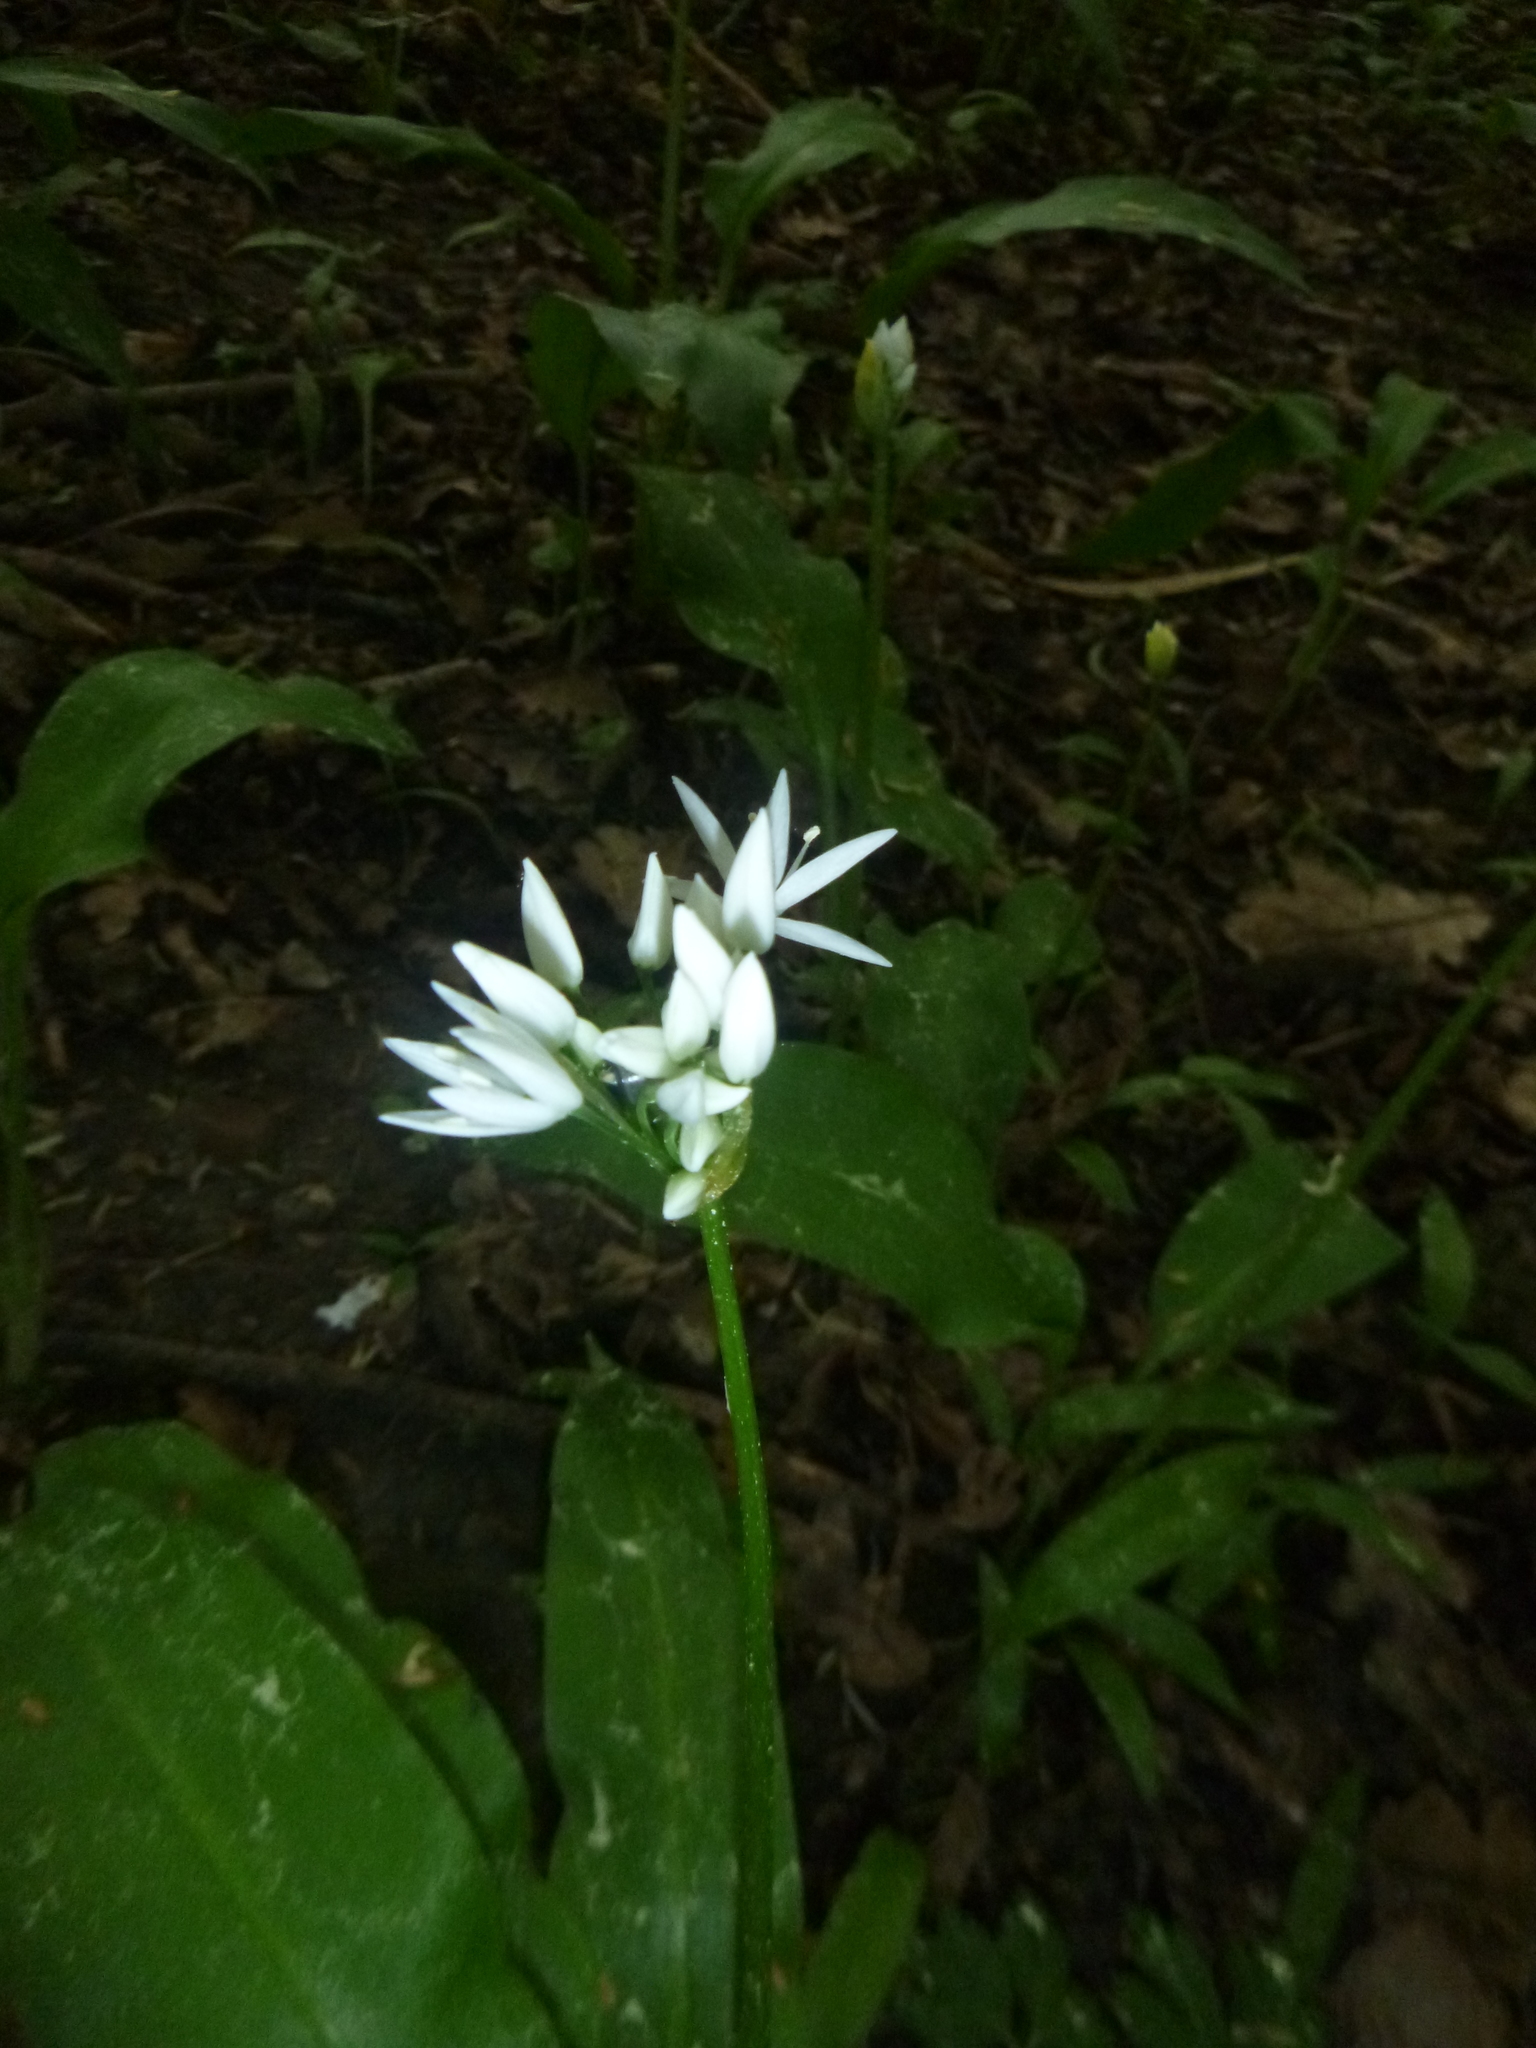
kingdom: Plantae
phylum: Tracheophyta
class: Liliopsida
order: Asparagales
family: Amaryllidaceae
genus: Allium
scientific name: Allium ursinum
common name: Ramsons
